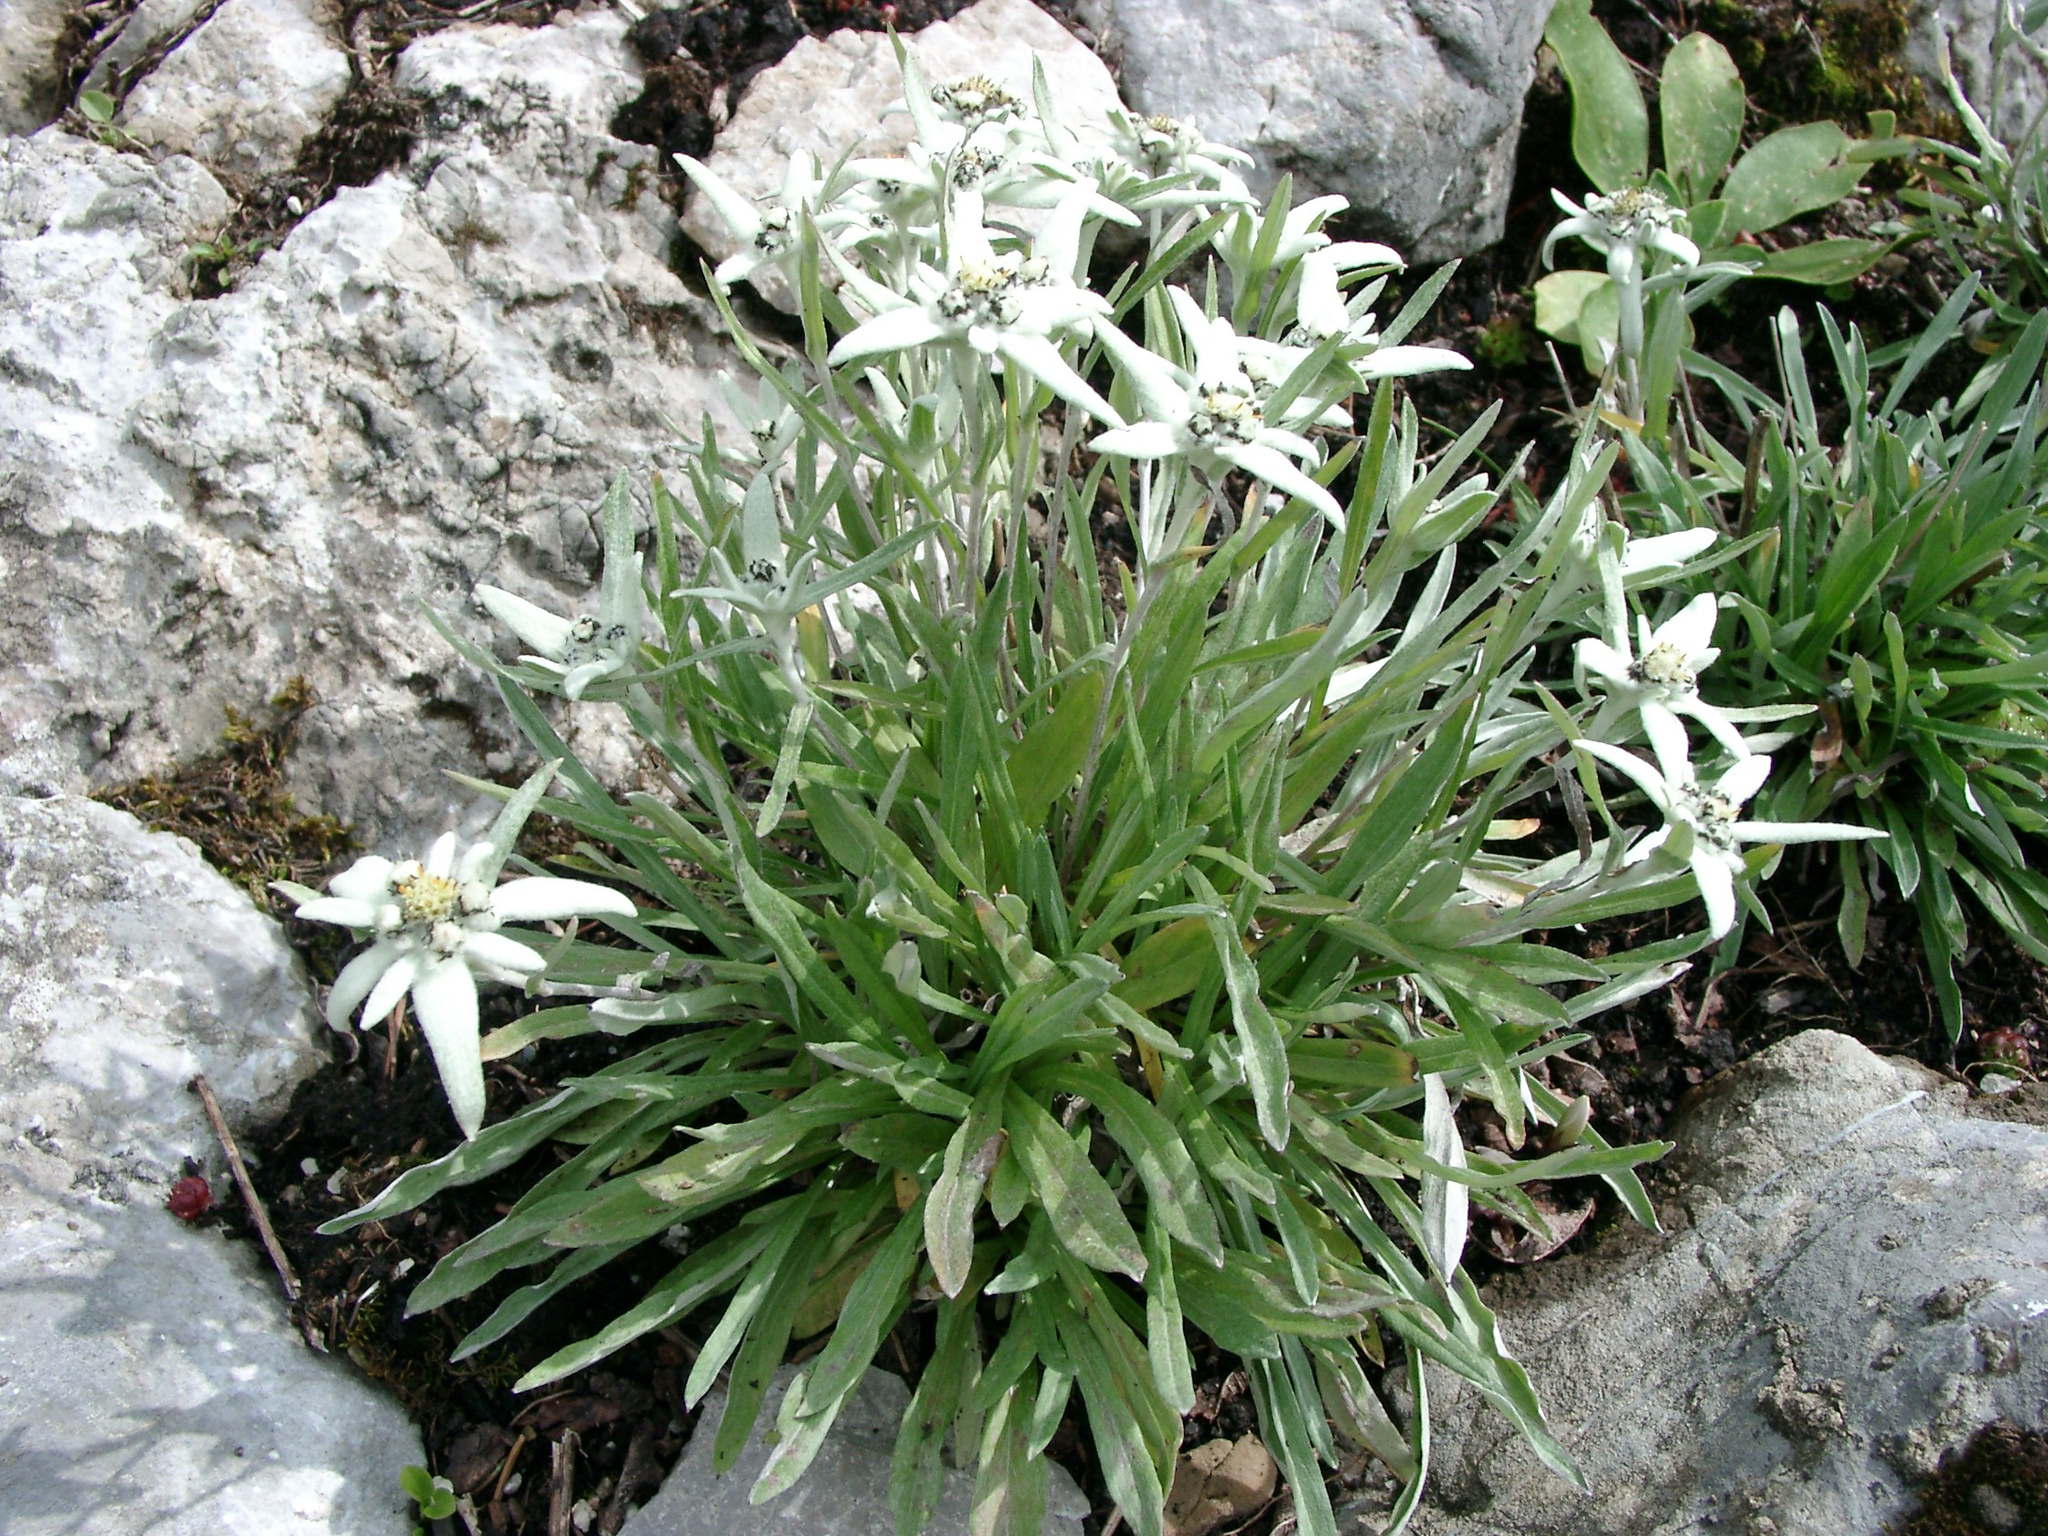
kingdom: Plantae
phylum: Tracheophyta
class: Magnoliopsida
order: Asterales
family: Asteraceae
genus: Leontopodium
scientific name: Leontopodium nivale
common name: Edelweiss
